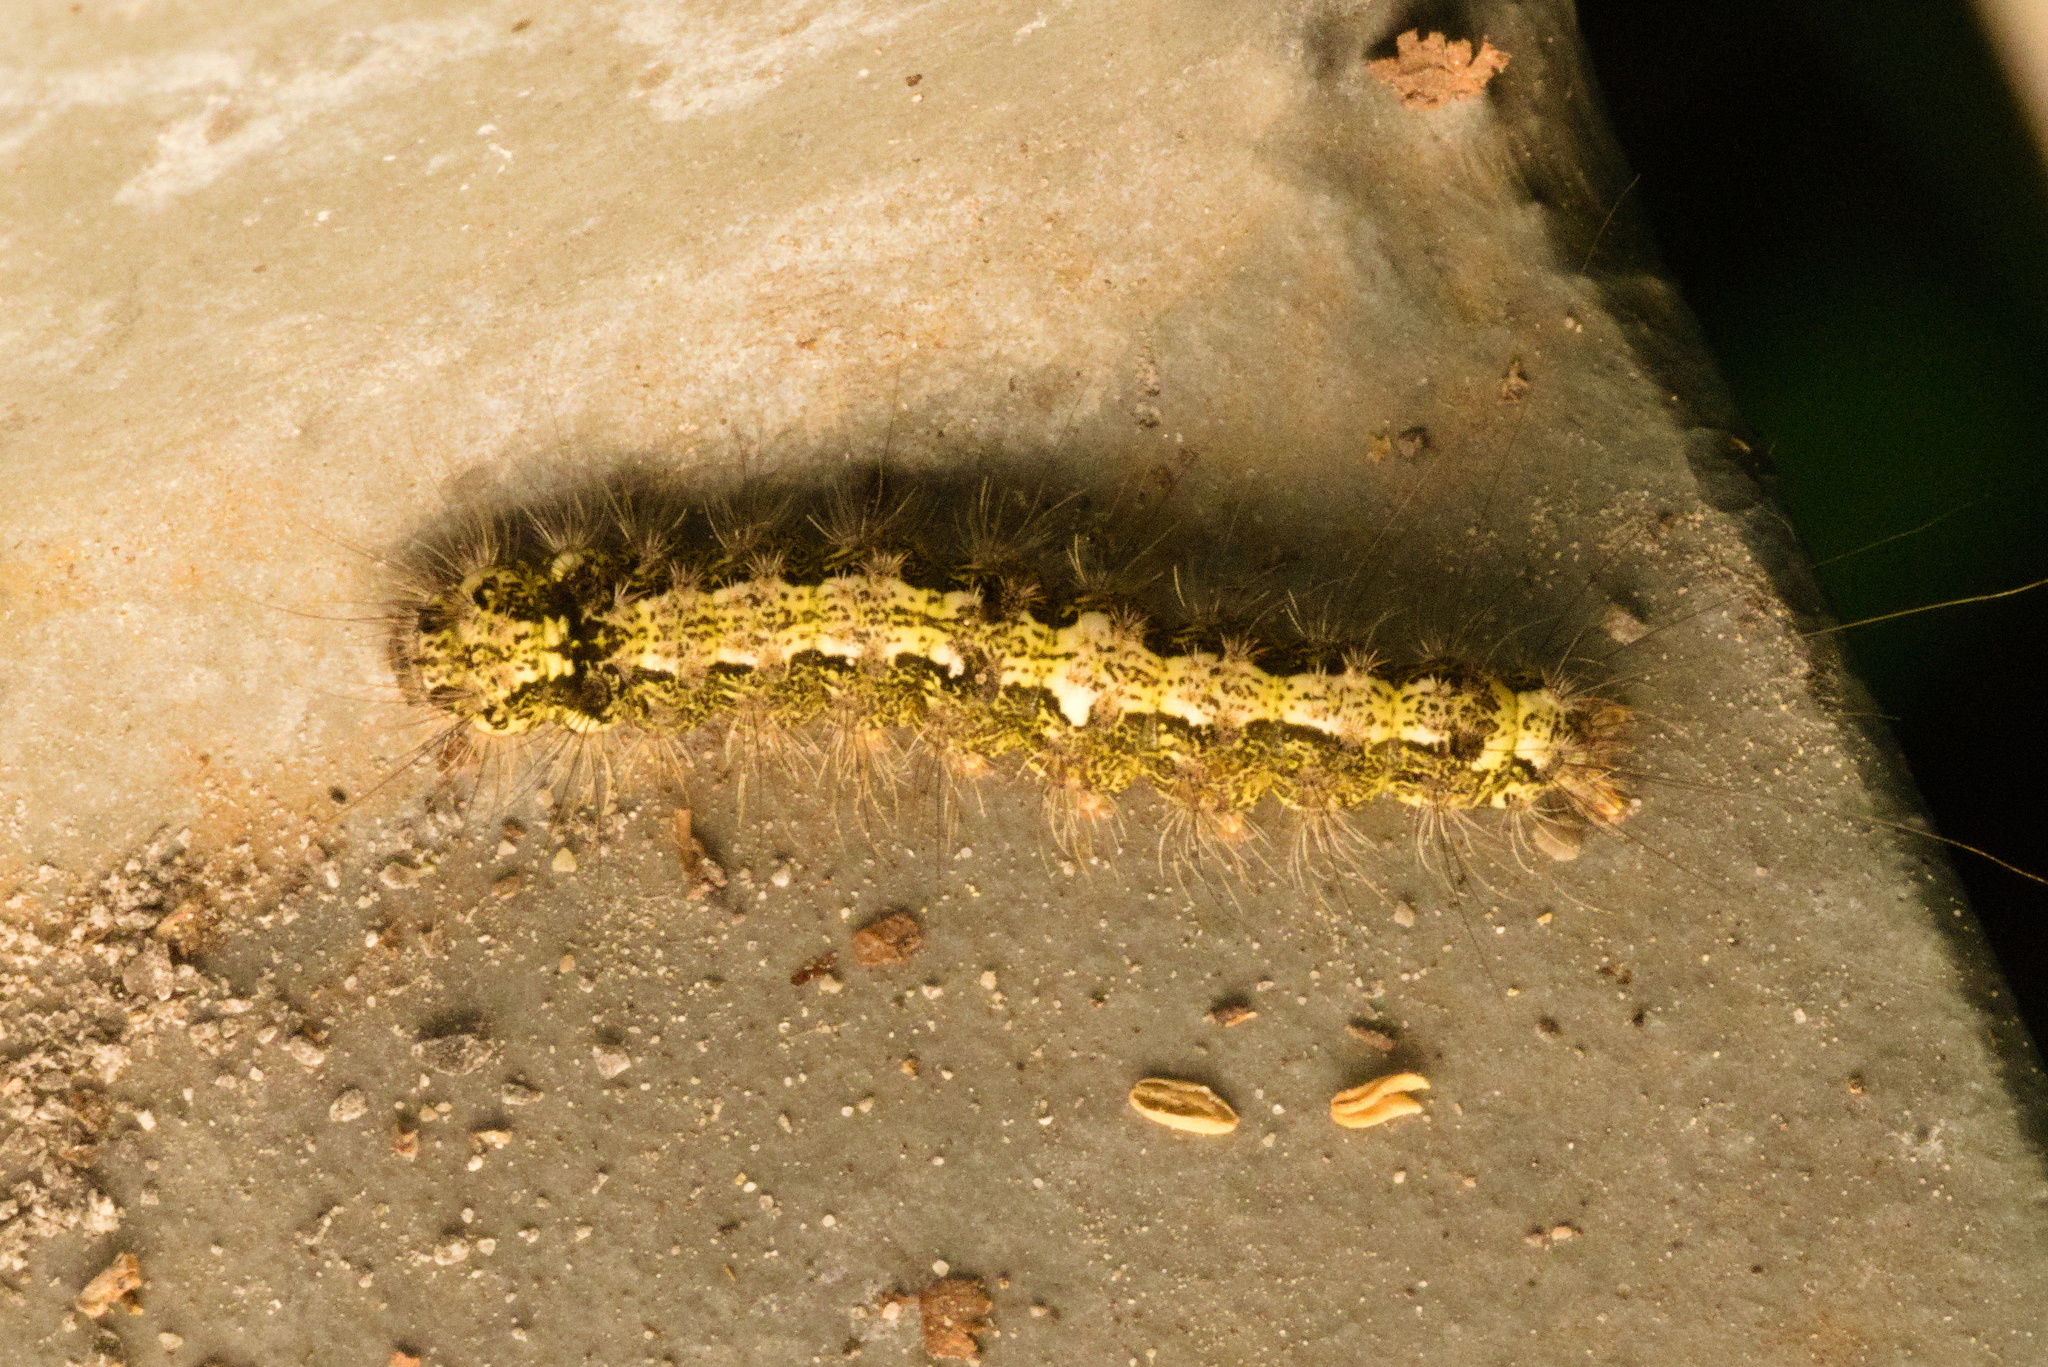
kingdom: Animalia
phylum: Arthropoda
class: Insecta
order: Lepidoptera
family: Erebidae
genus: Katha
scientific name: Katha depressa
